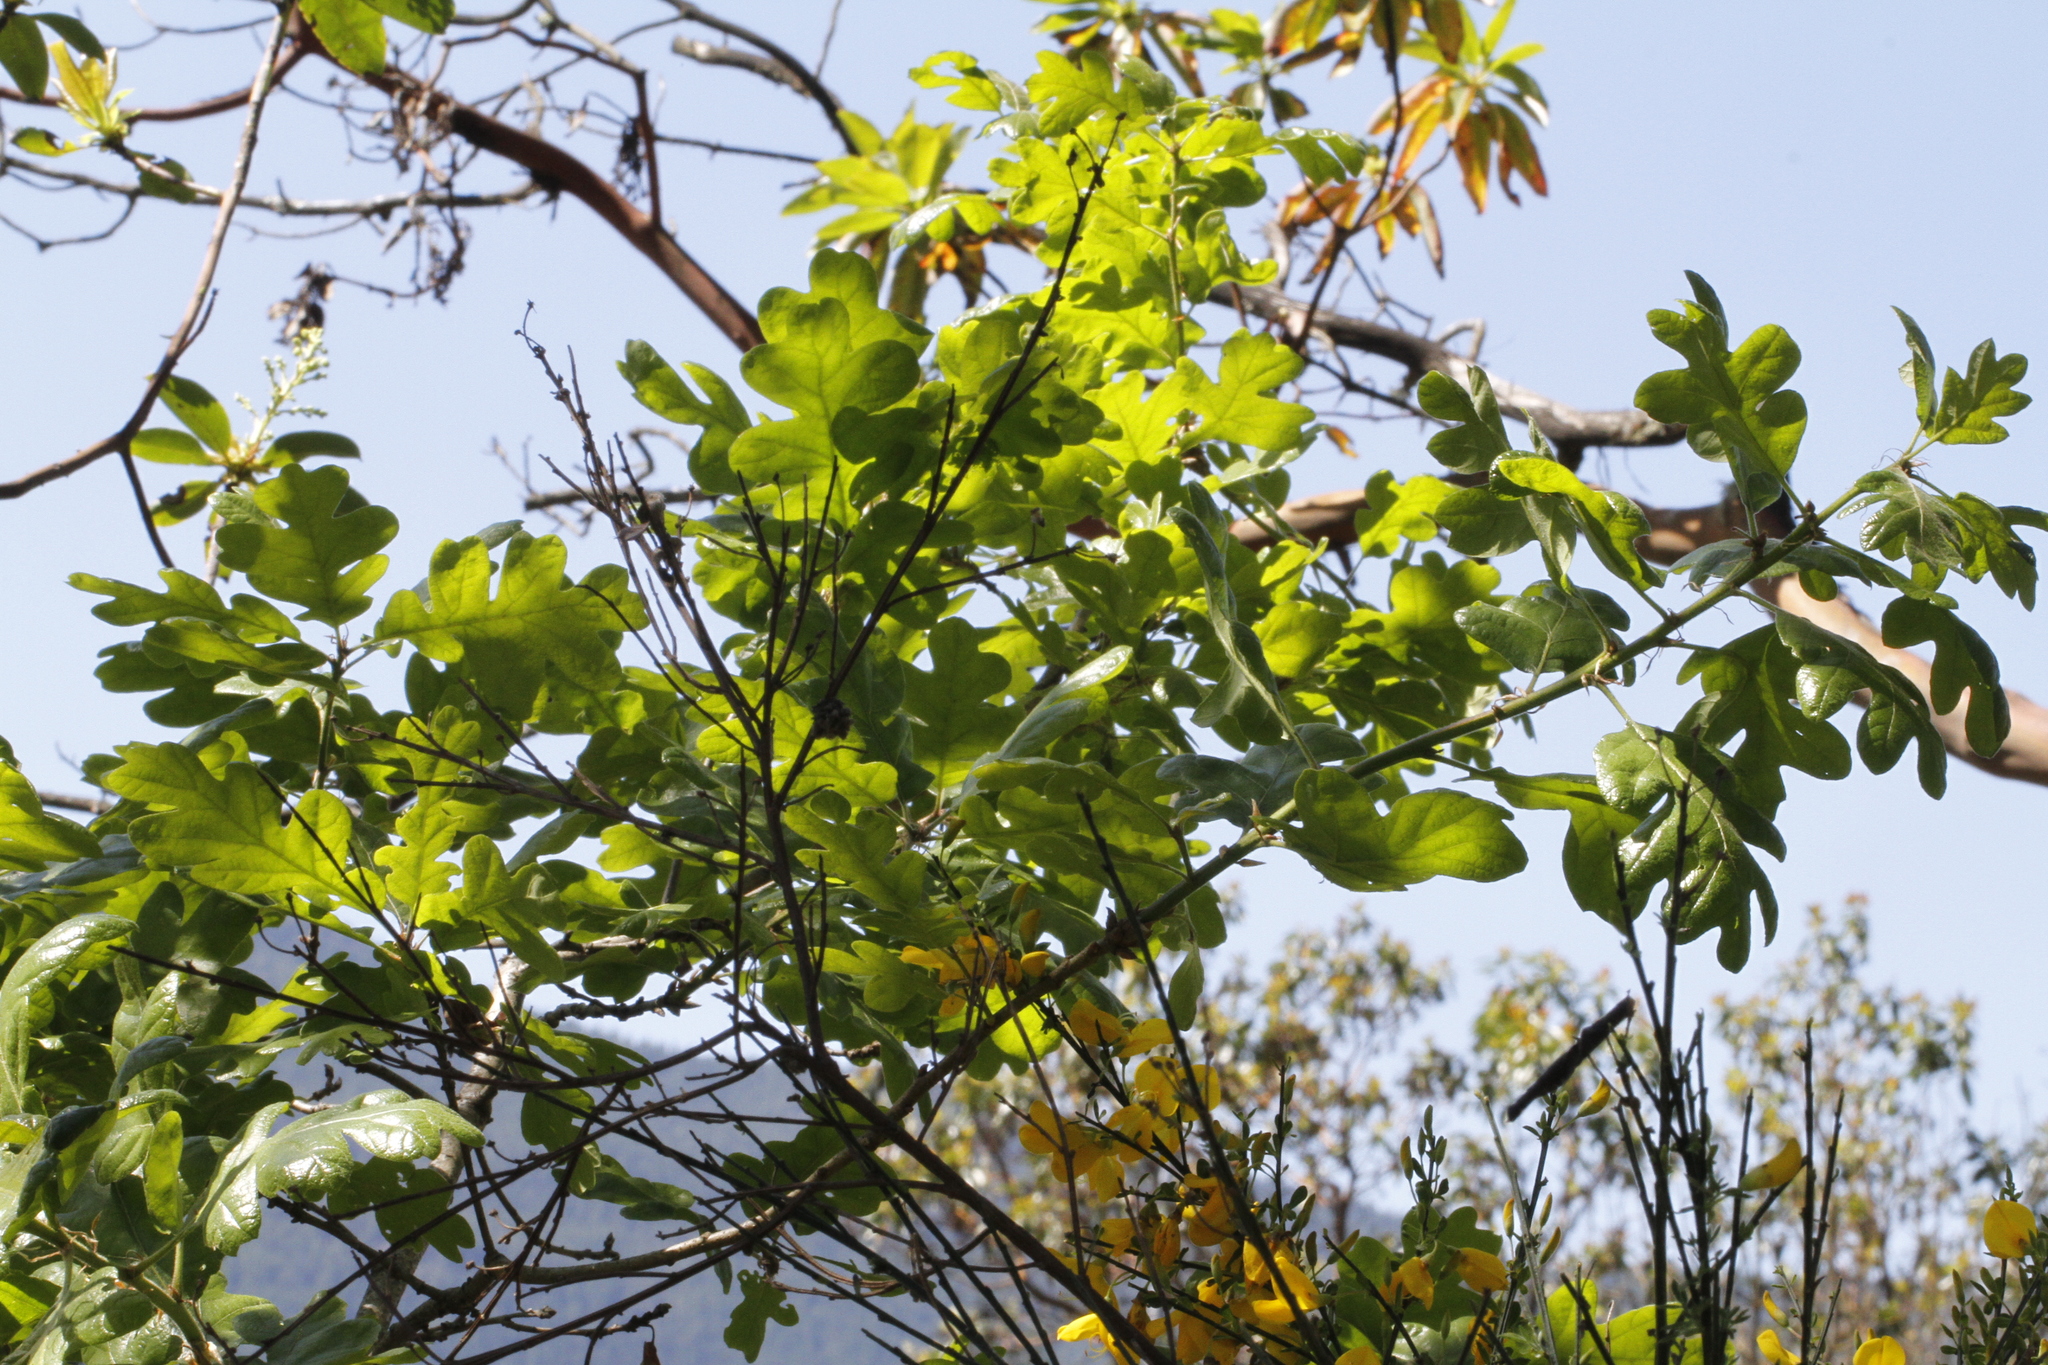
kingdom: Plantae
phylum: Tracheophyta
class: Magnoliopsida
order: Fagales
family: Fagaceae
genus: Quercus
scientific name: Quercus garryana
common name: Garry oak
